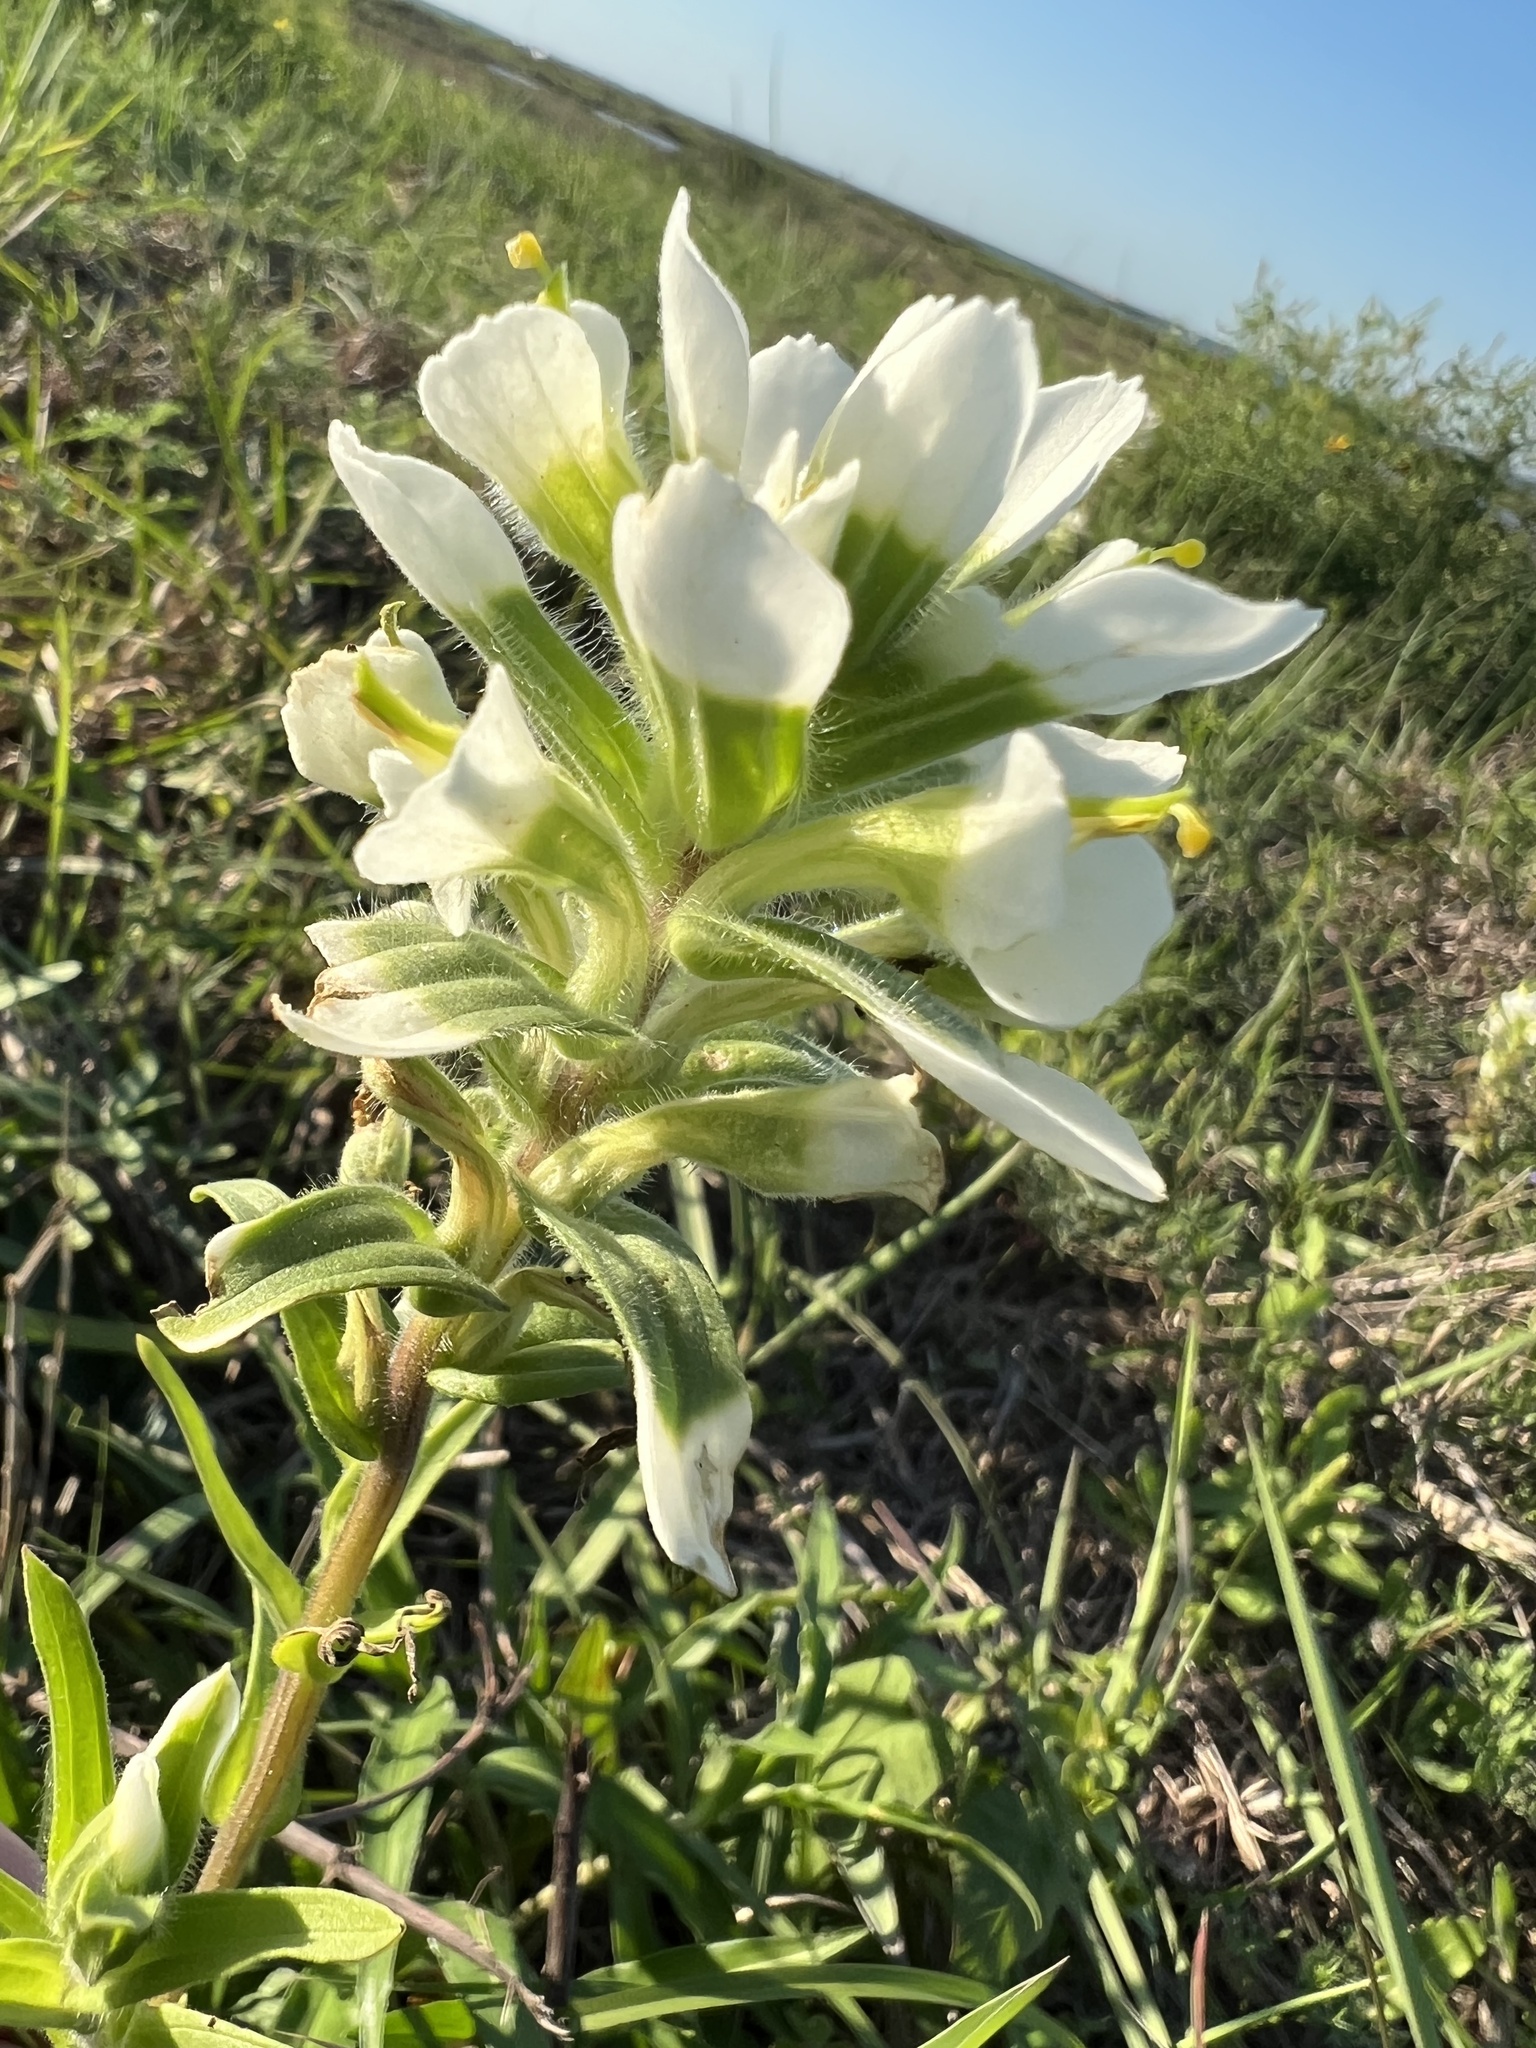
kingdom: Plantae
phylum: Tracheophyta
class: Magnoliopsida
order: Lamiales
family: Orobanchaceae
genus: Castilleja
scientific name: Castilleja halophila
